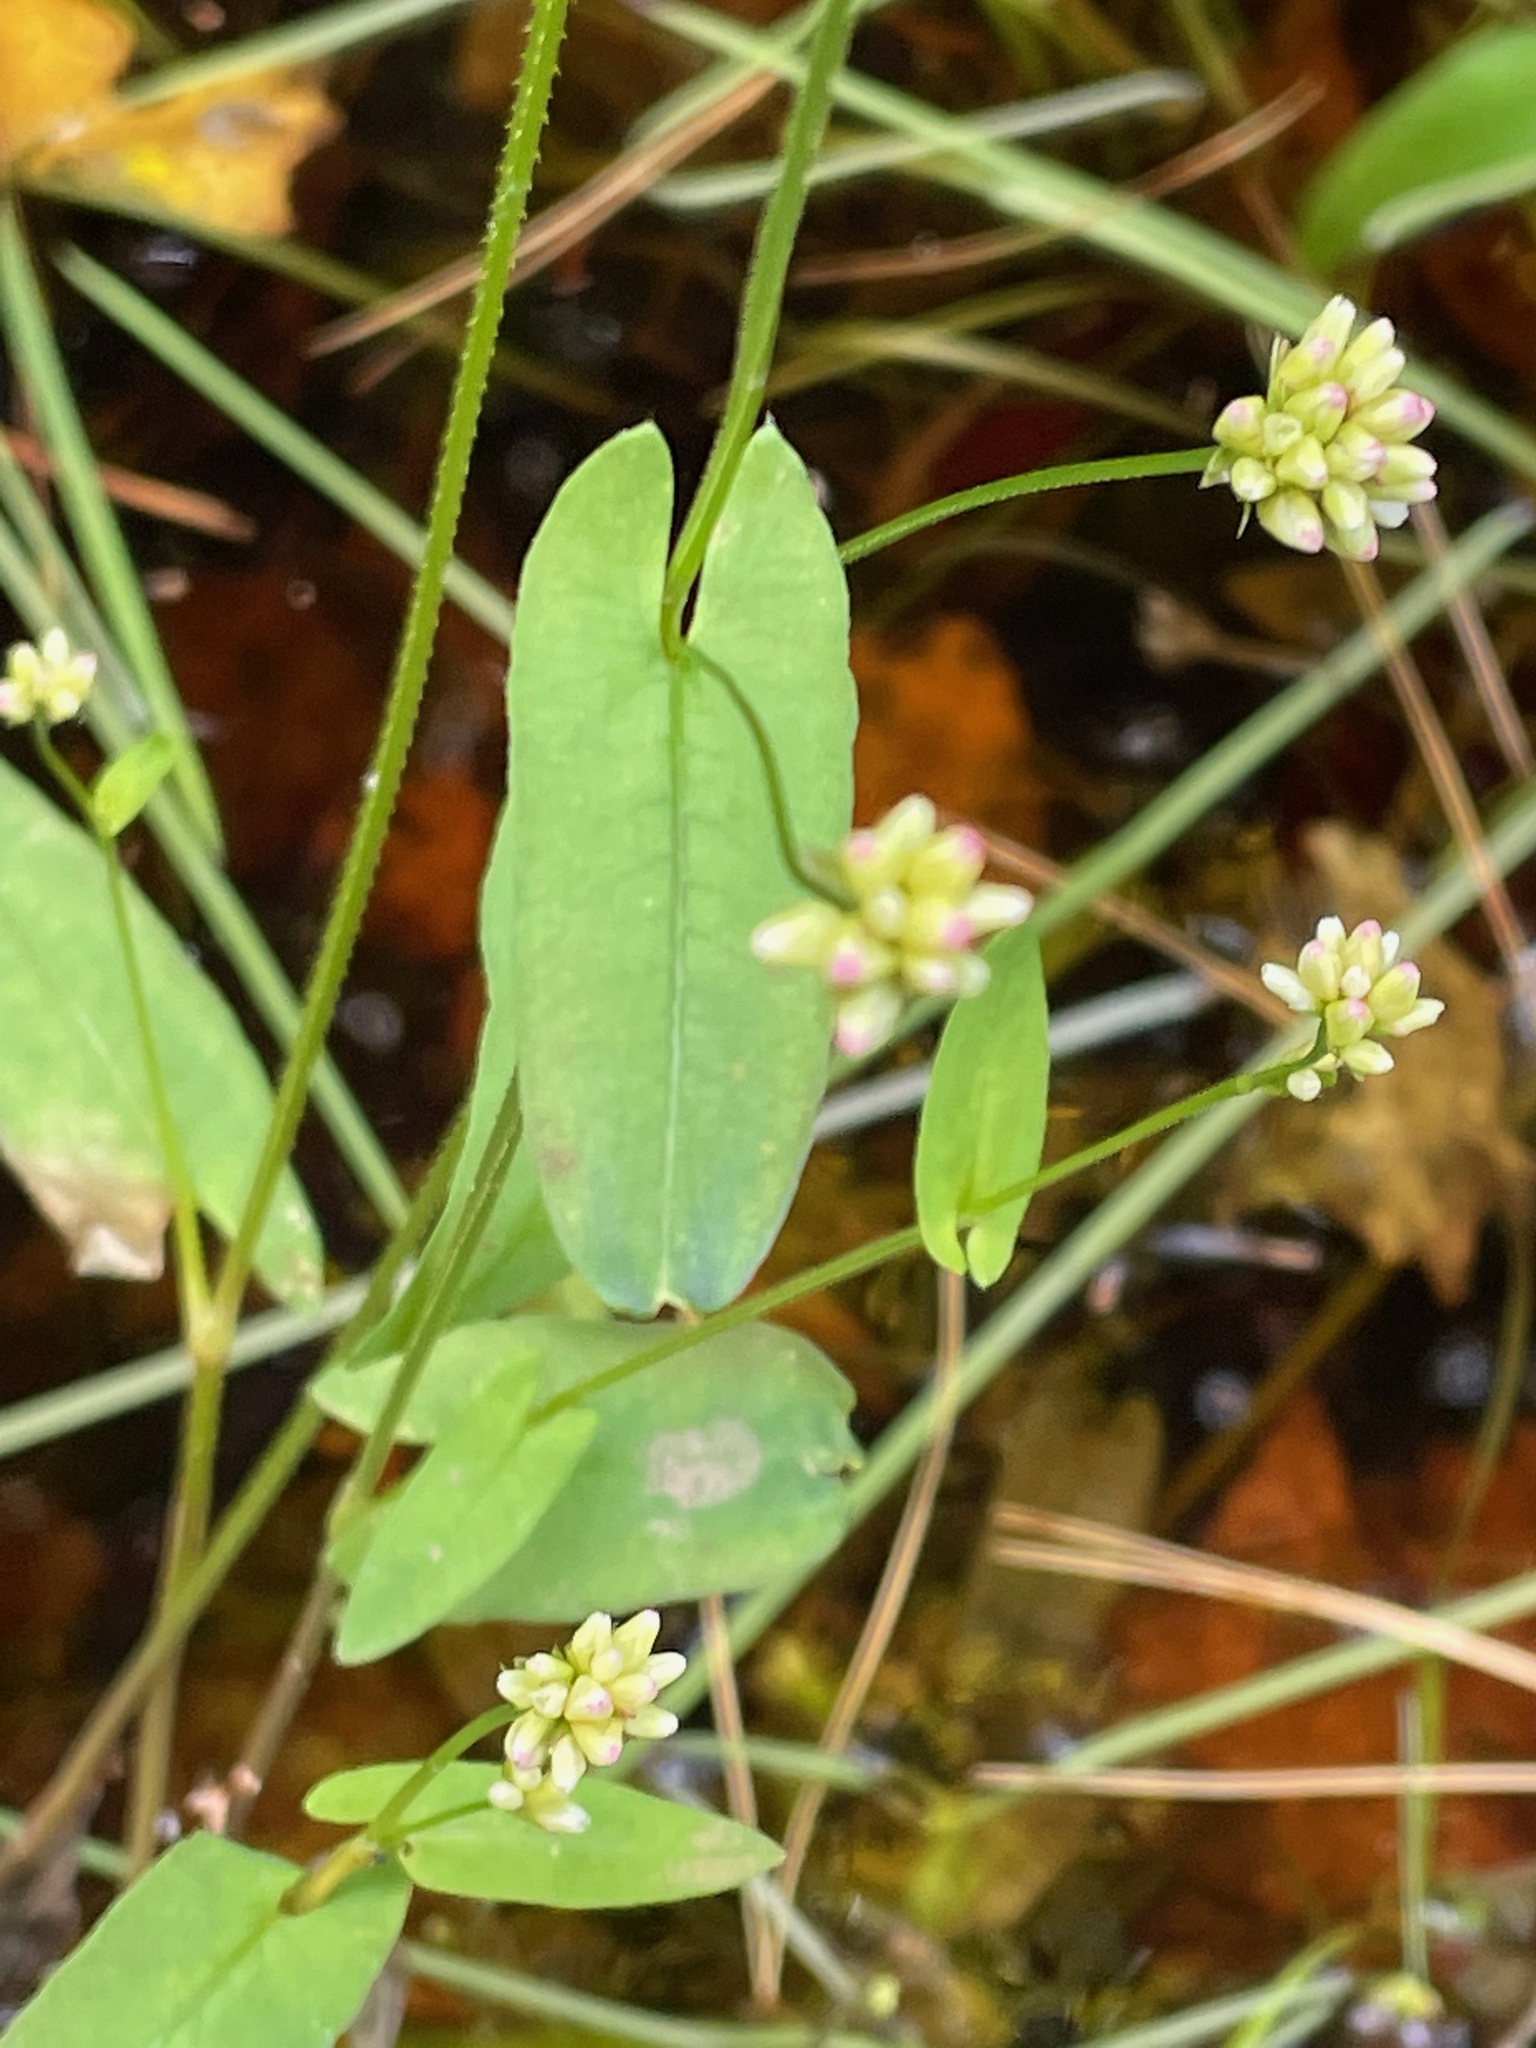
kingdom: Plantae
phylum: Tracheophyta
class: Magnoliopsida
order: Caryophyllales
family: Polygonaceae
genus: Persicaria
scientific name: Persicaria sagittata
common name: American tearthumb
